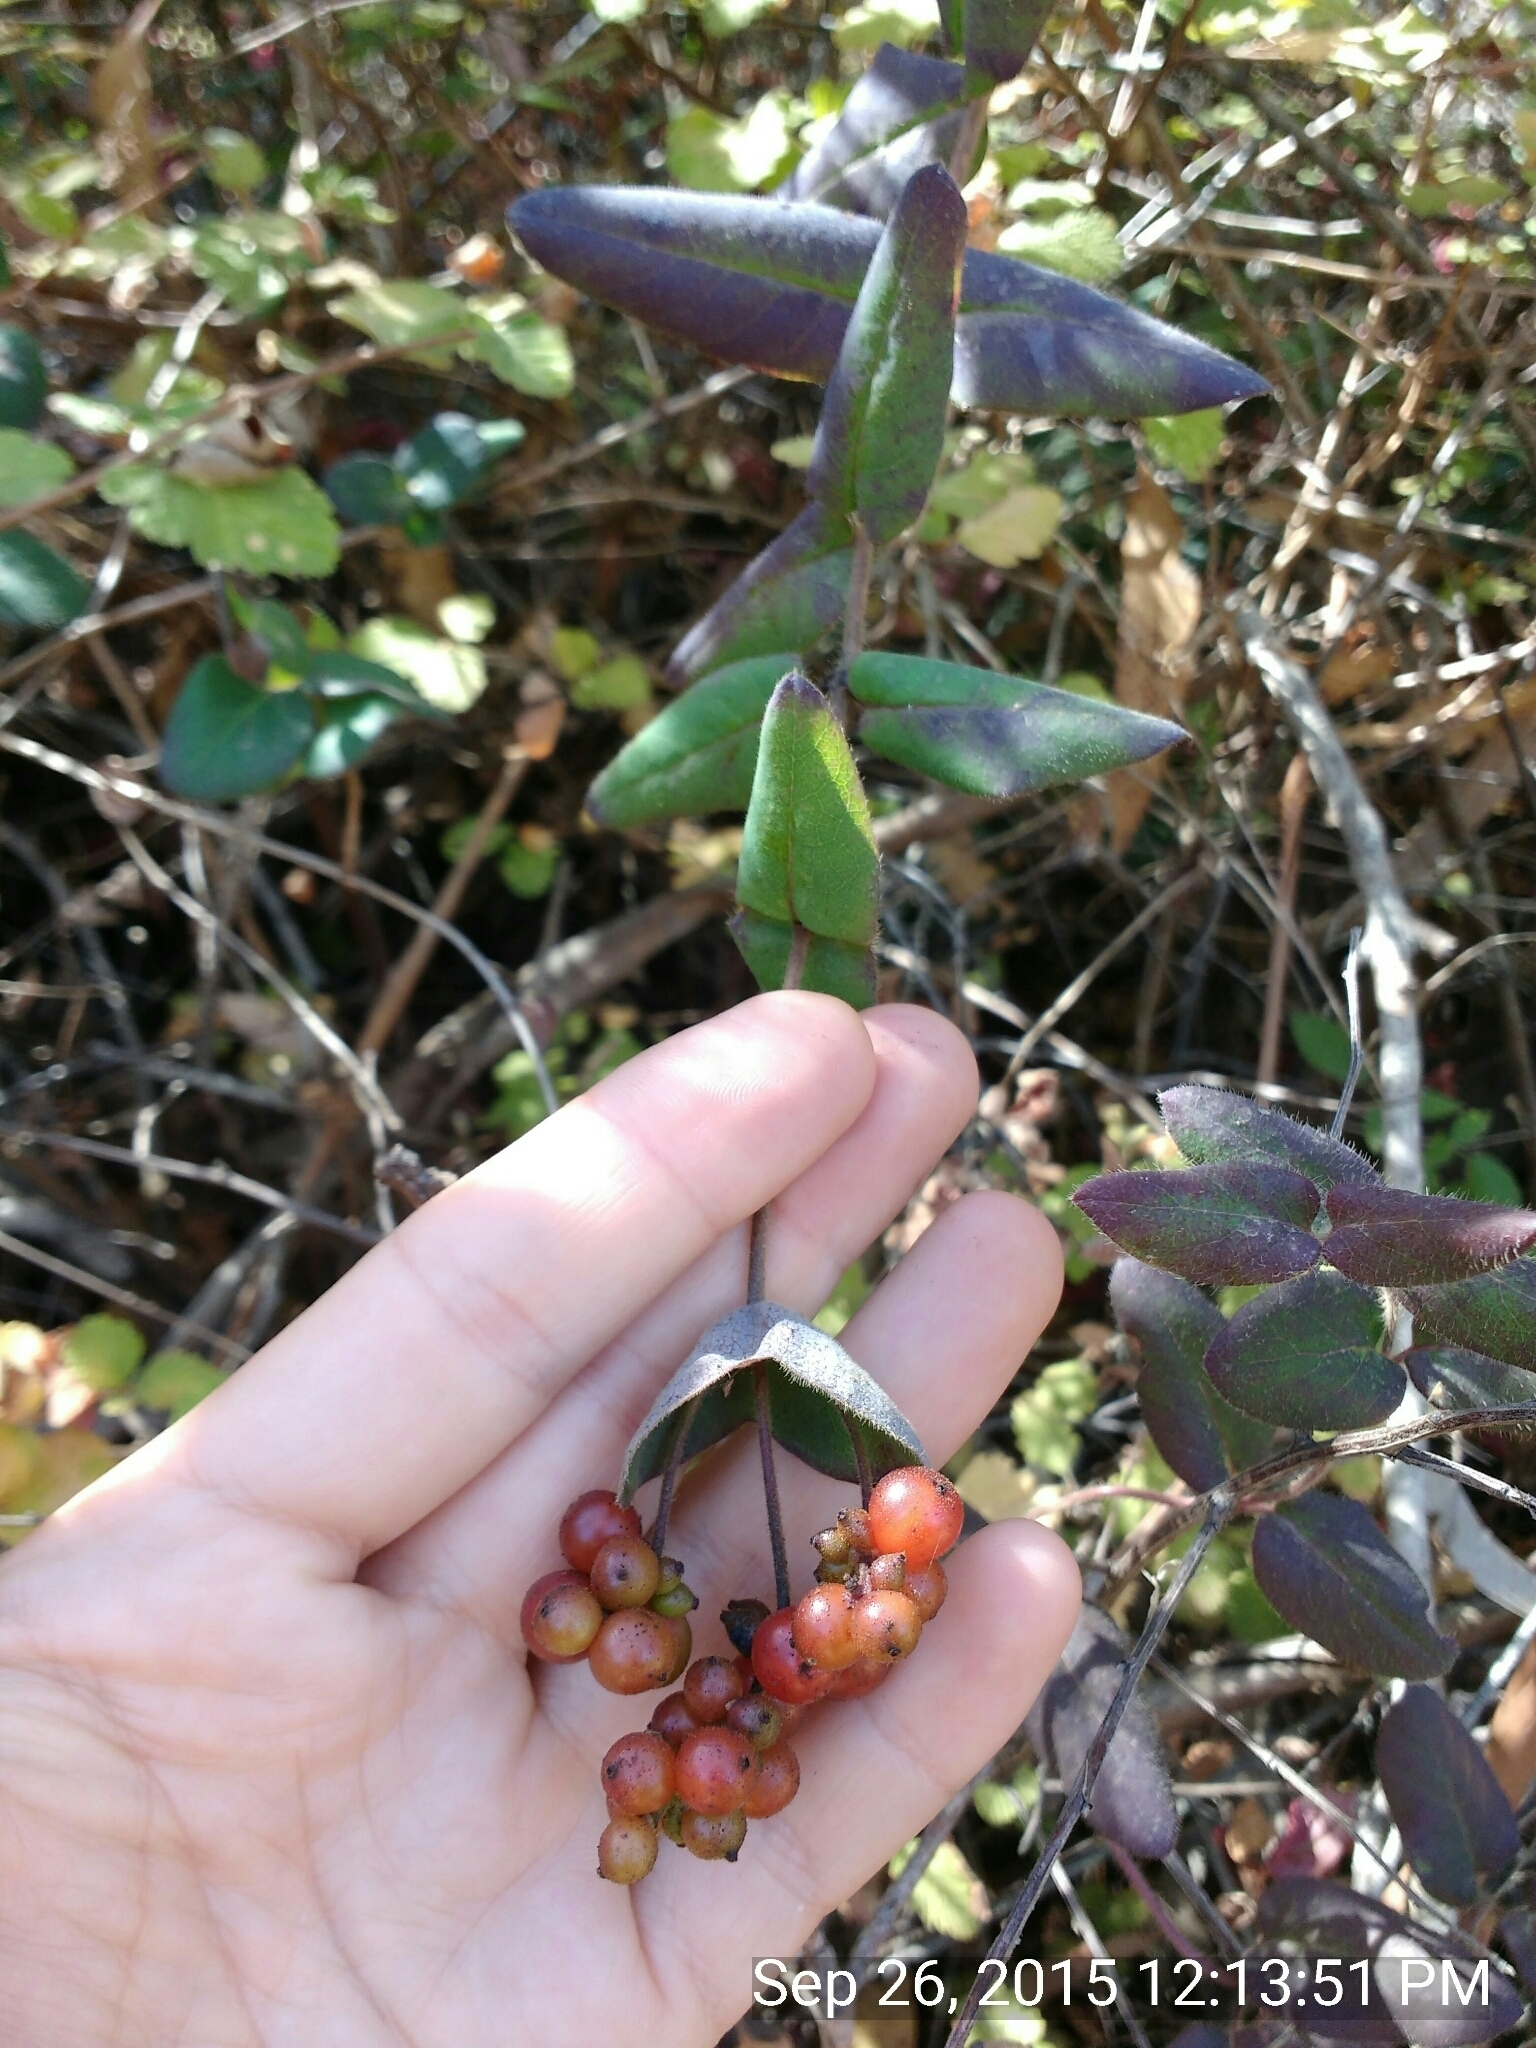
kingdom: Plantae
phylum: Tracheophyta
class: Magnoliopsida
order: Dipsacales
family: Caprifoliaceae
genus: Lonicera
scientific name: Lonicera hispidula
